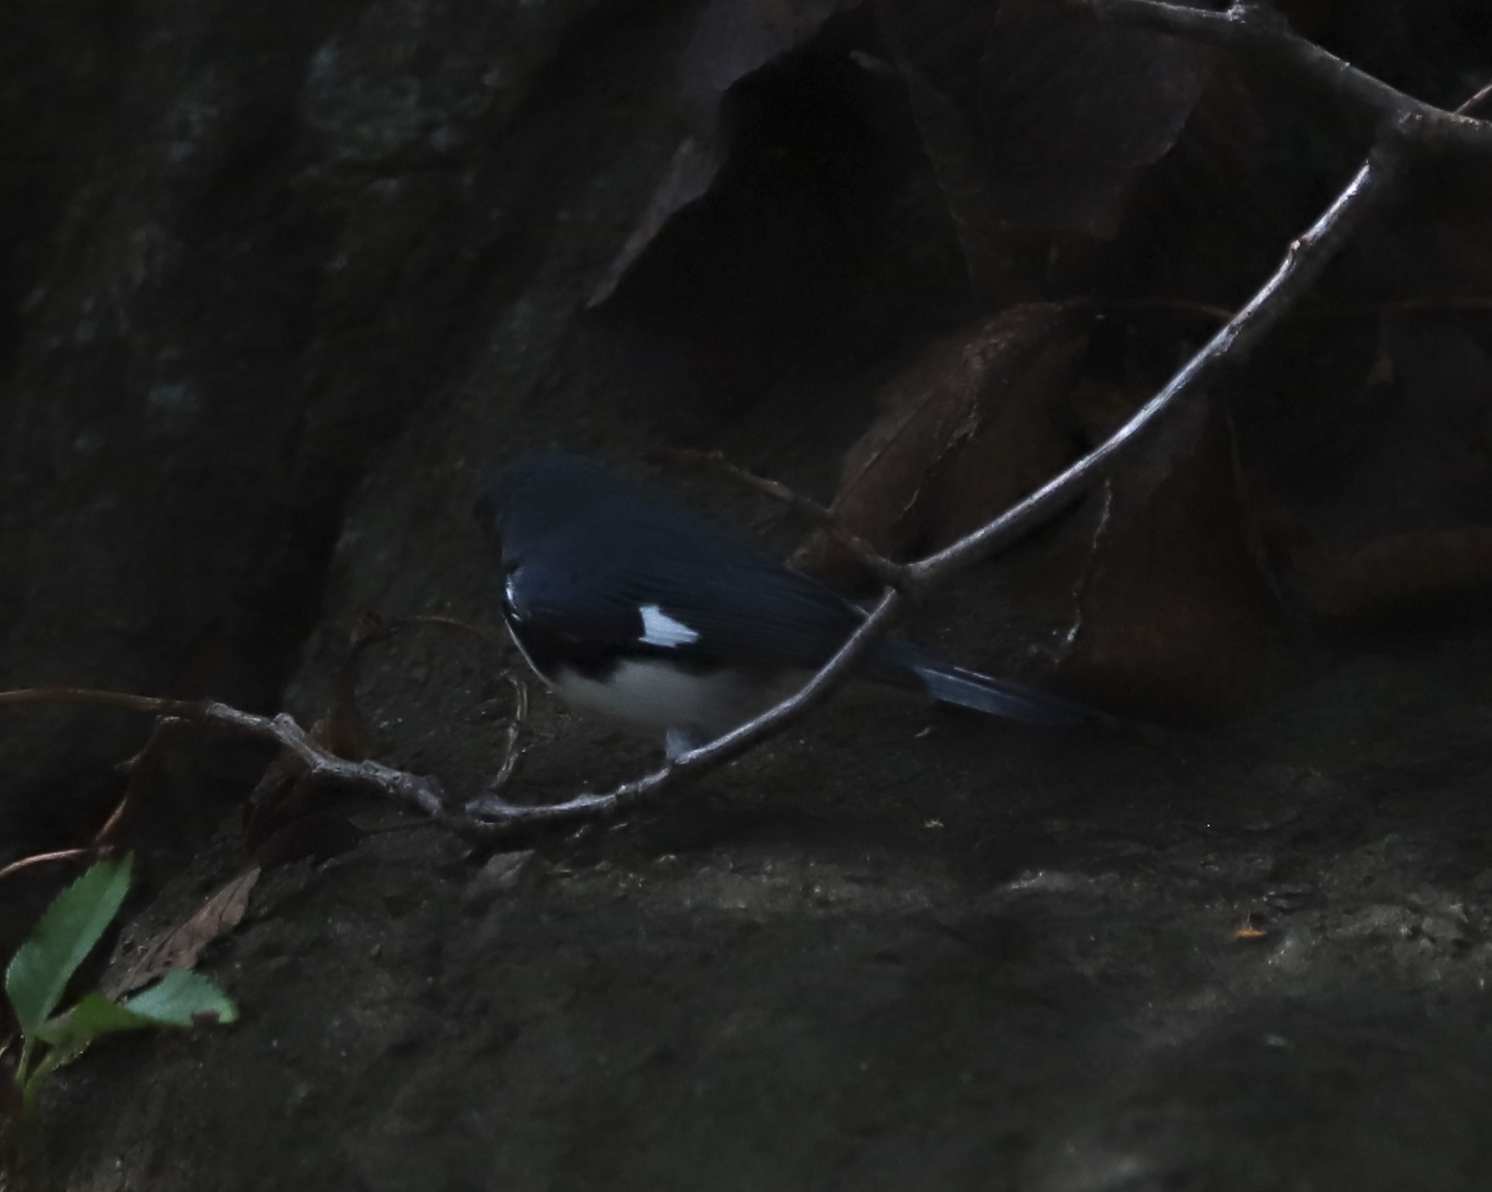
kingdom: Animalia
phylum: Chordata
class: Aves
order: Passeriformes
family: Parulidae
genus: Setophaga
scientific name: Setophaga caerulescens
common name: Black-throated blue warbler
